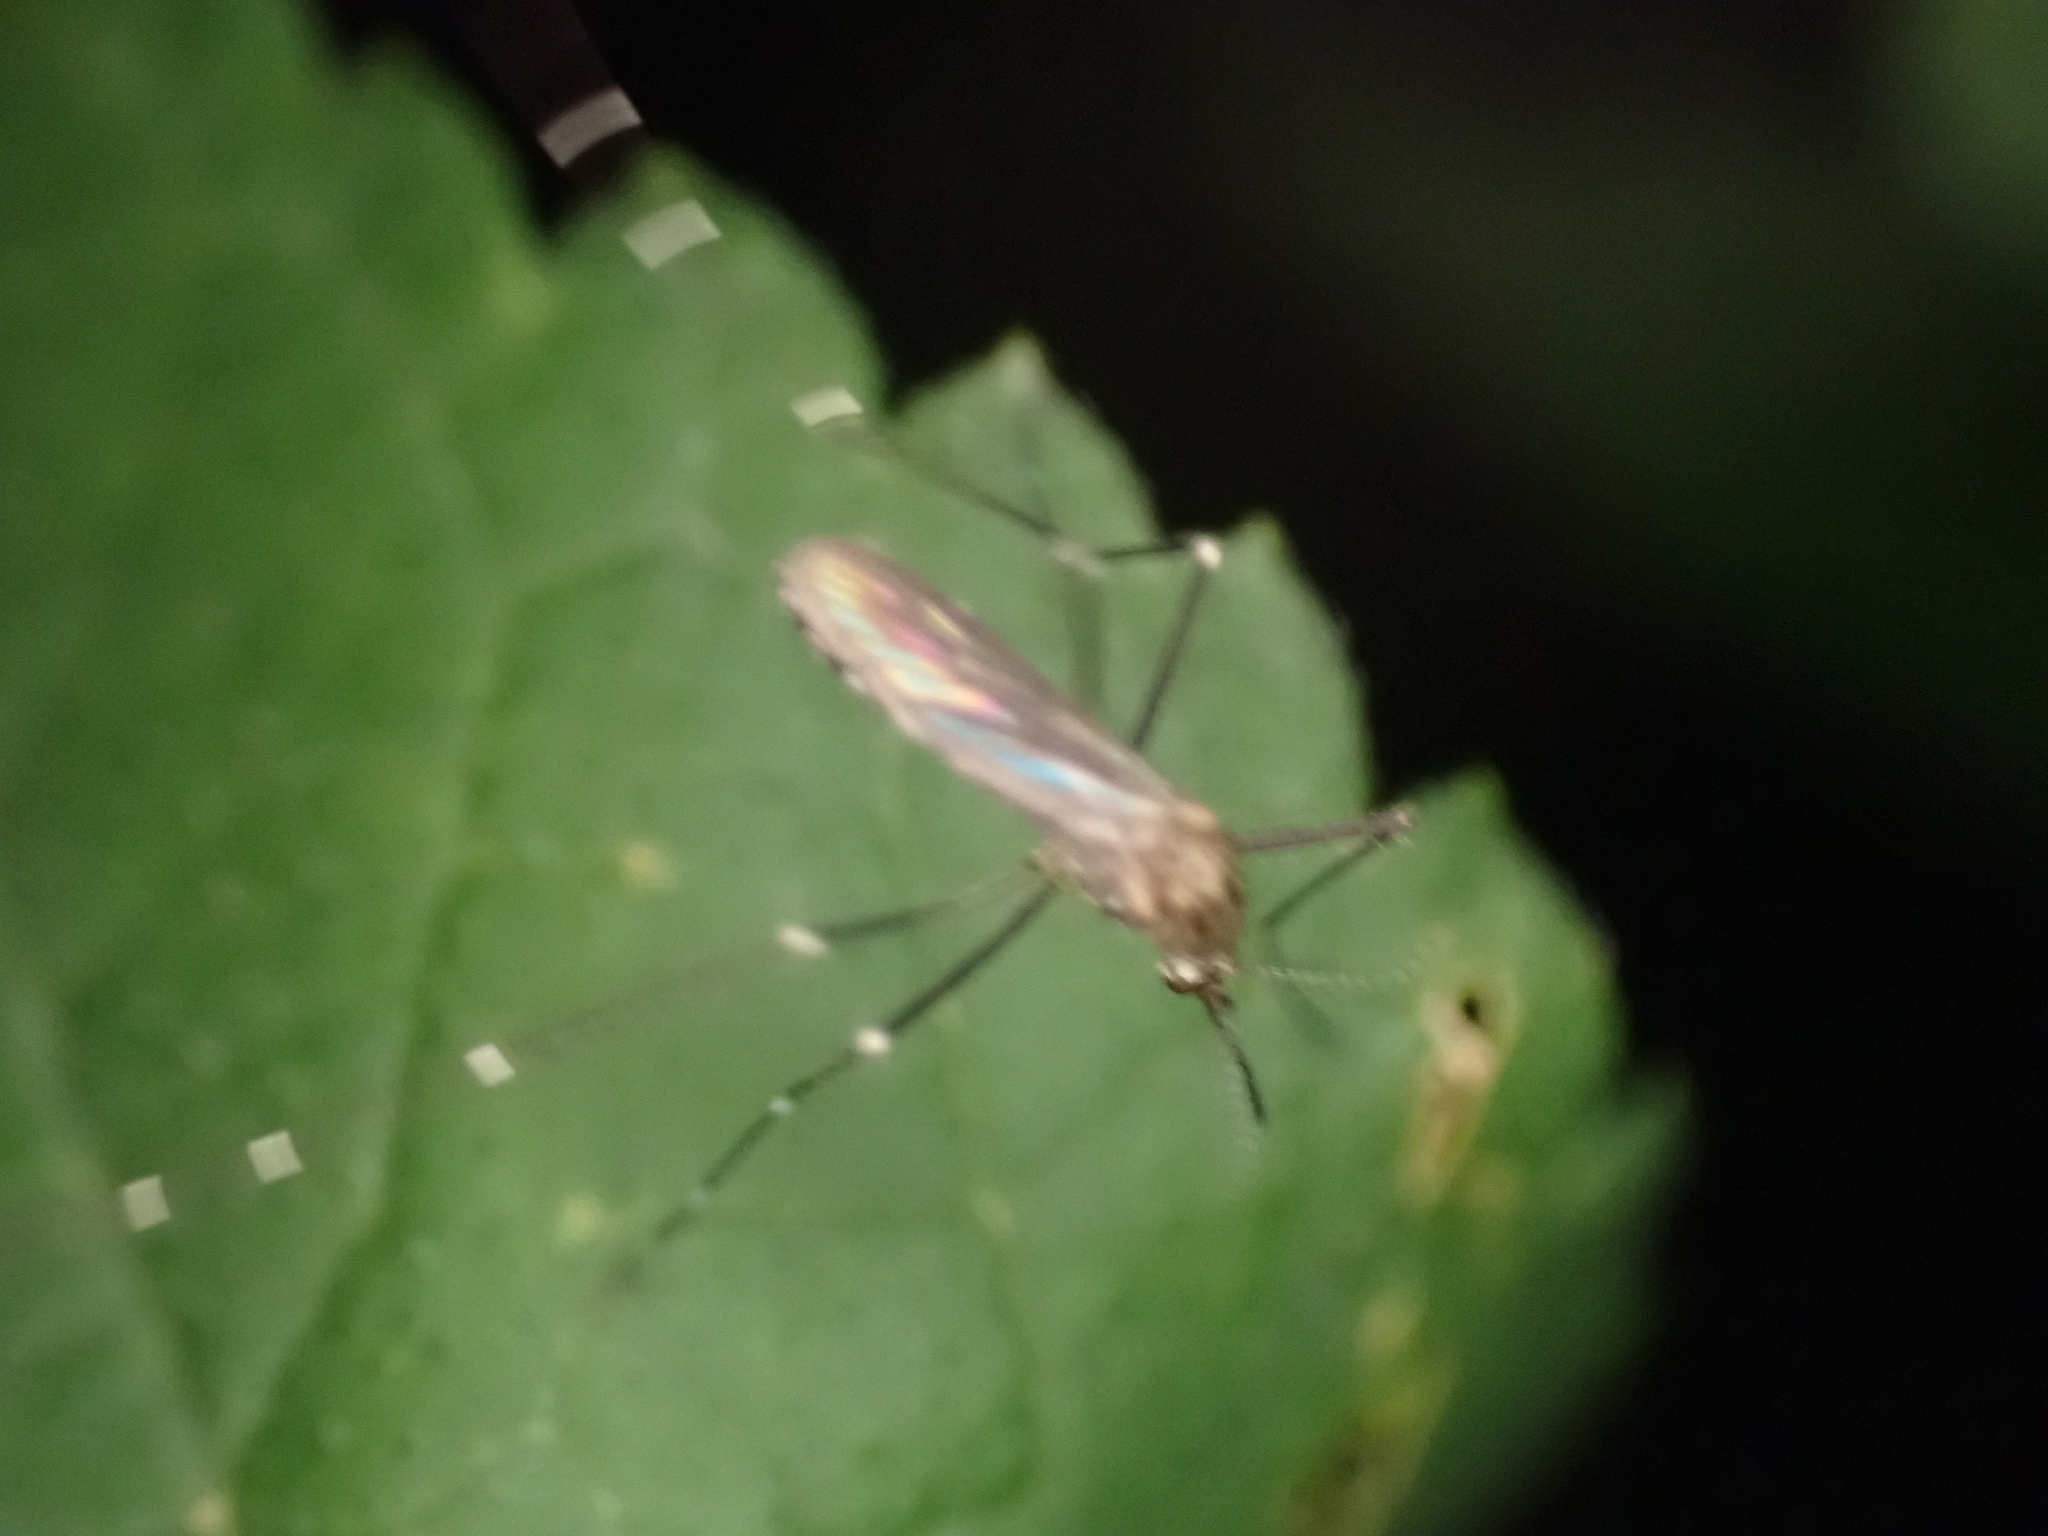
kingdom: Animalia
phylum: Arthropoda
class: Insecta
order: Diptera
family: Culicidae
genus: Aedes
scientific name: Aedes japonicus
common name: Asian bush mosquito
